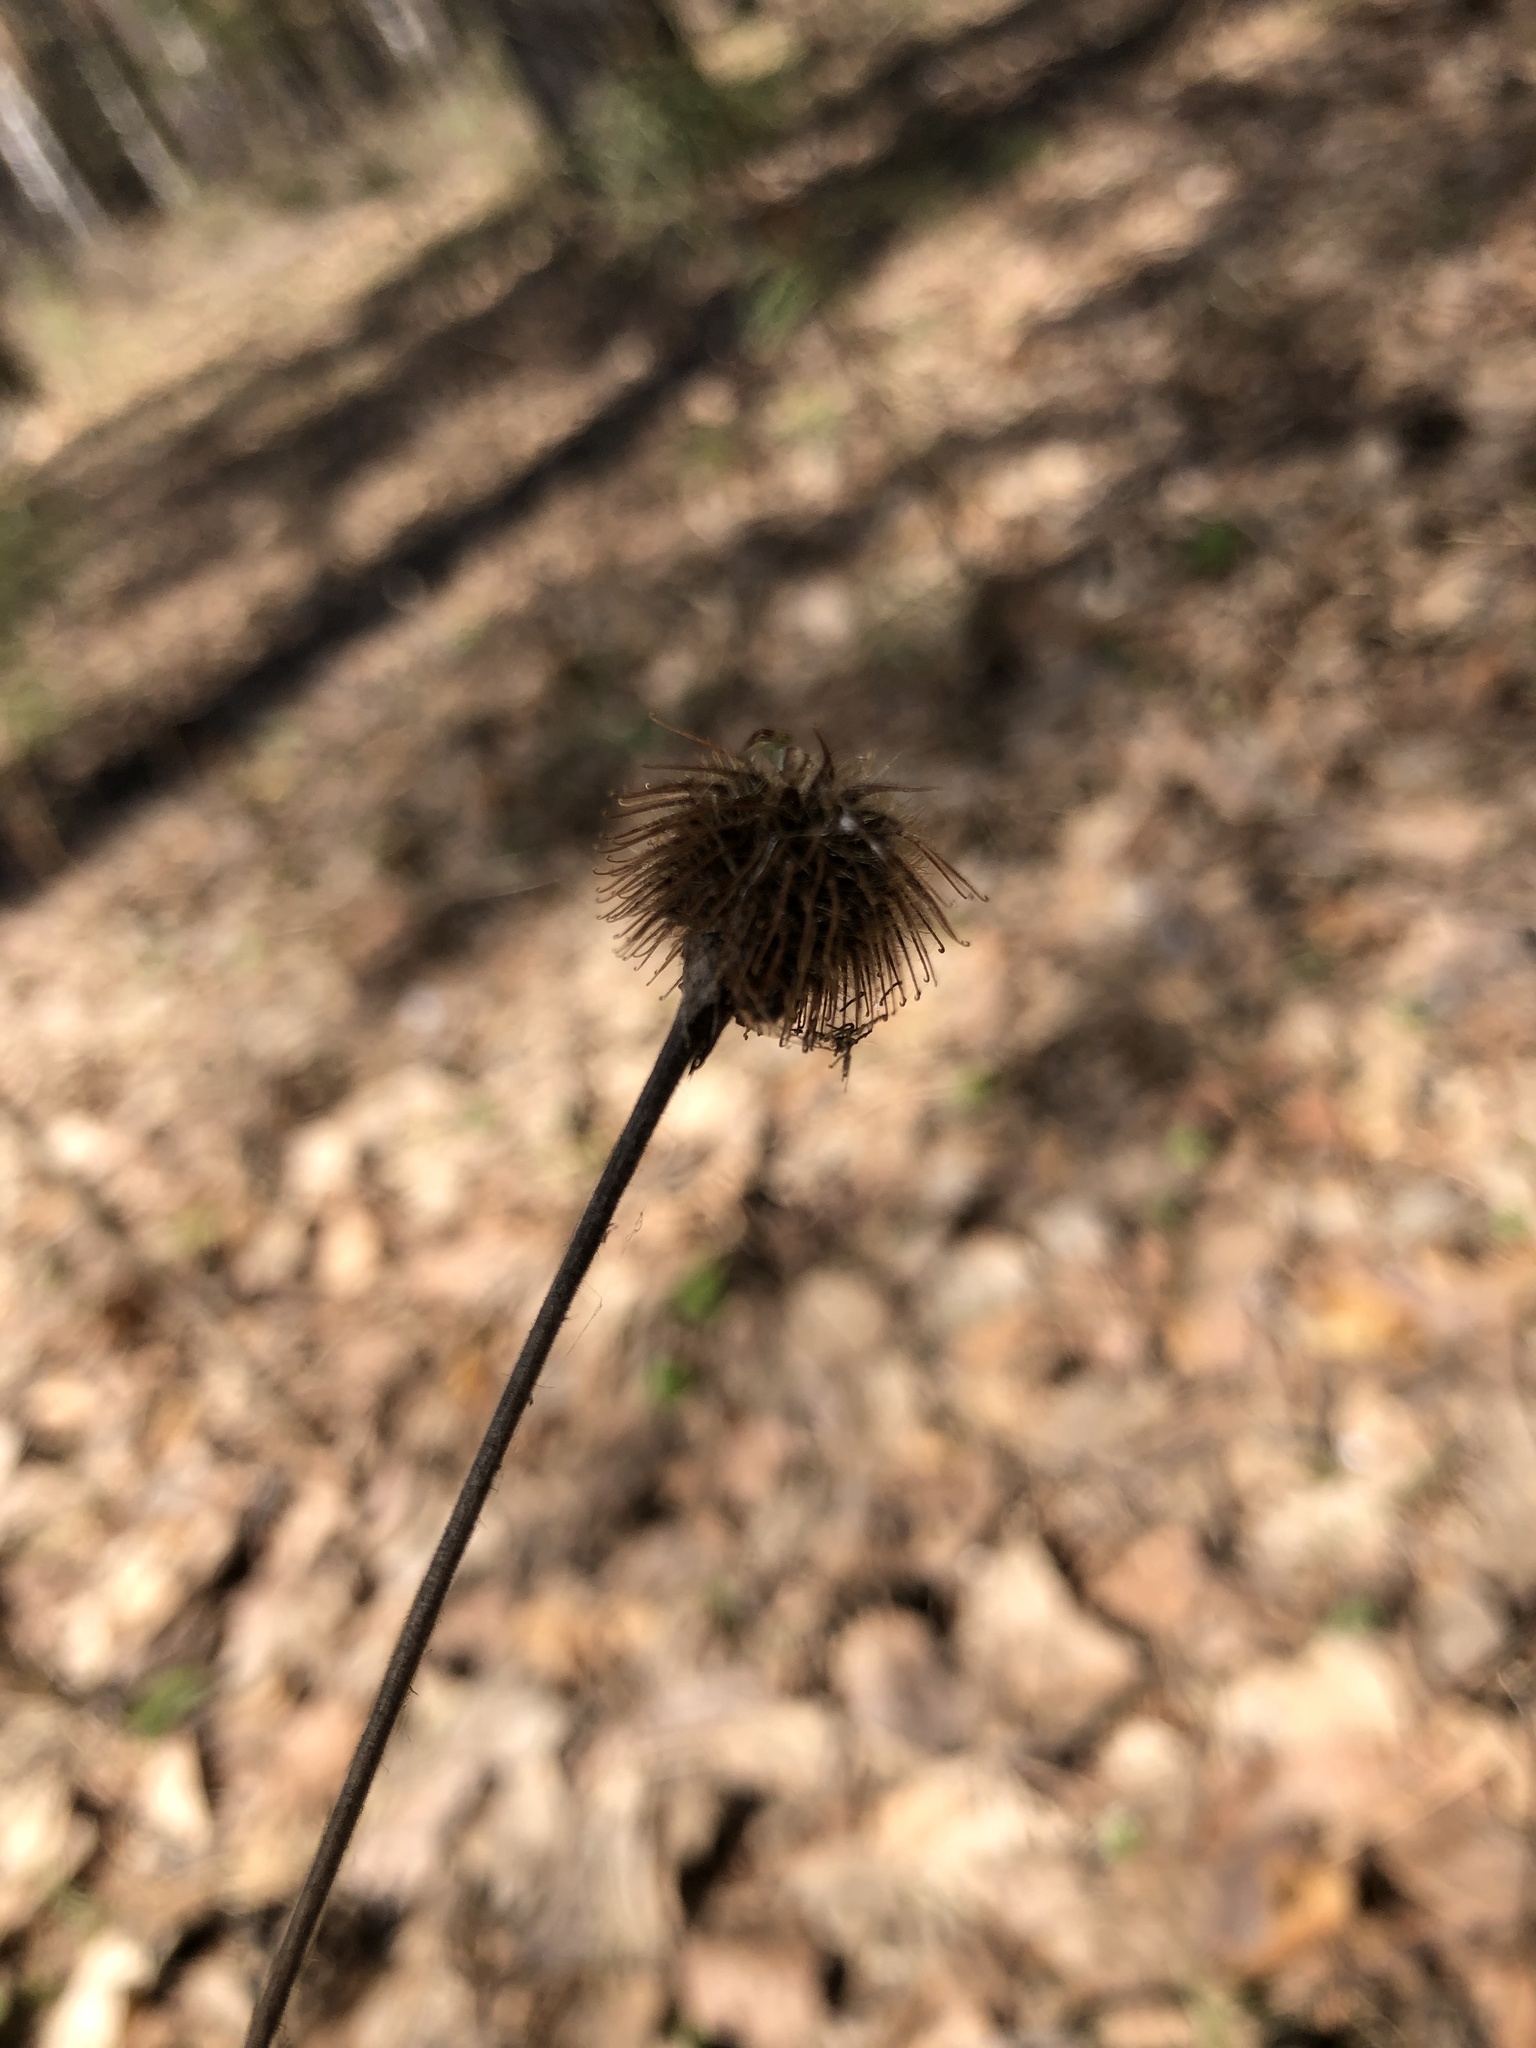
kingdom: Plantae
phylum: Tracheophyta
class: Magnoliopsida
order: Rosales
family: Rosaceae
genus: Geum
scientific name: Geum aleppicum
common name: Yellow avens
